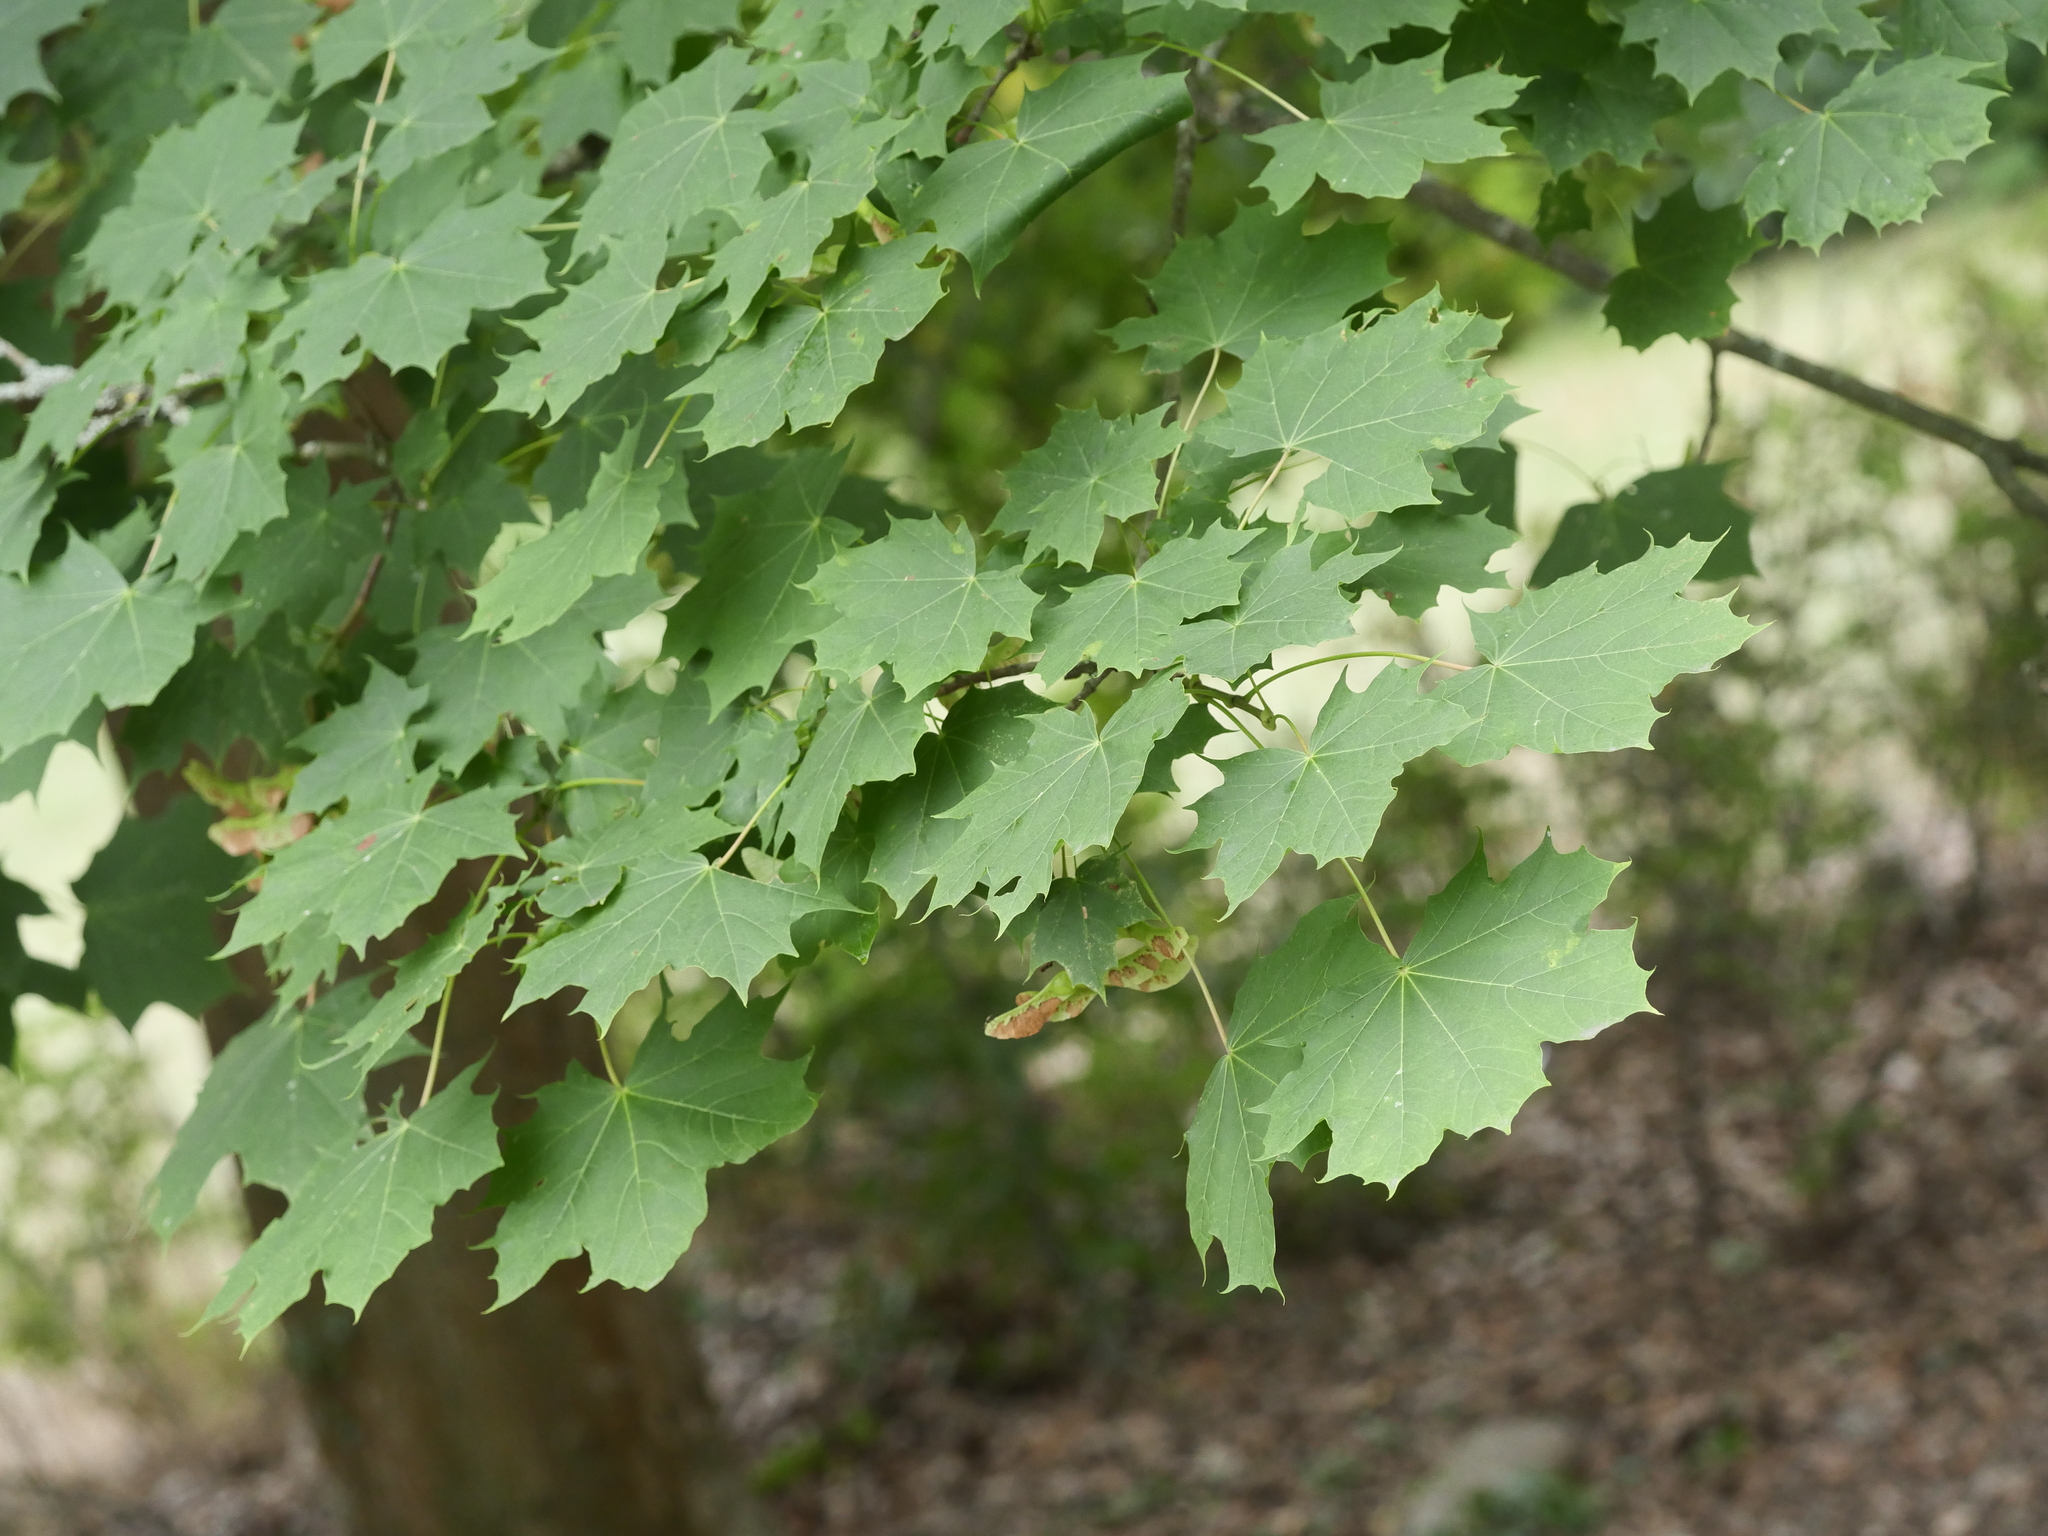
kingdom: Plantae
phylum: Tracheophyta
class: Magnoliopsida
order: Sapindales
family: Sapindaceae
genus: Acer
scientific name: Acer platanoides
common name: Norway maple
